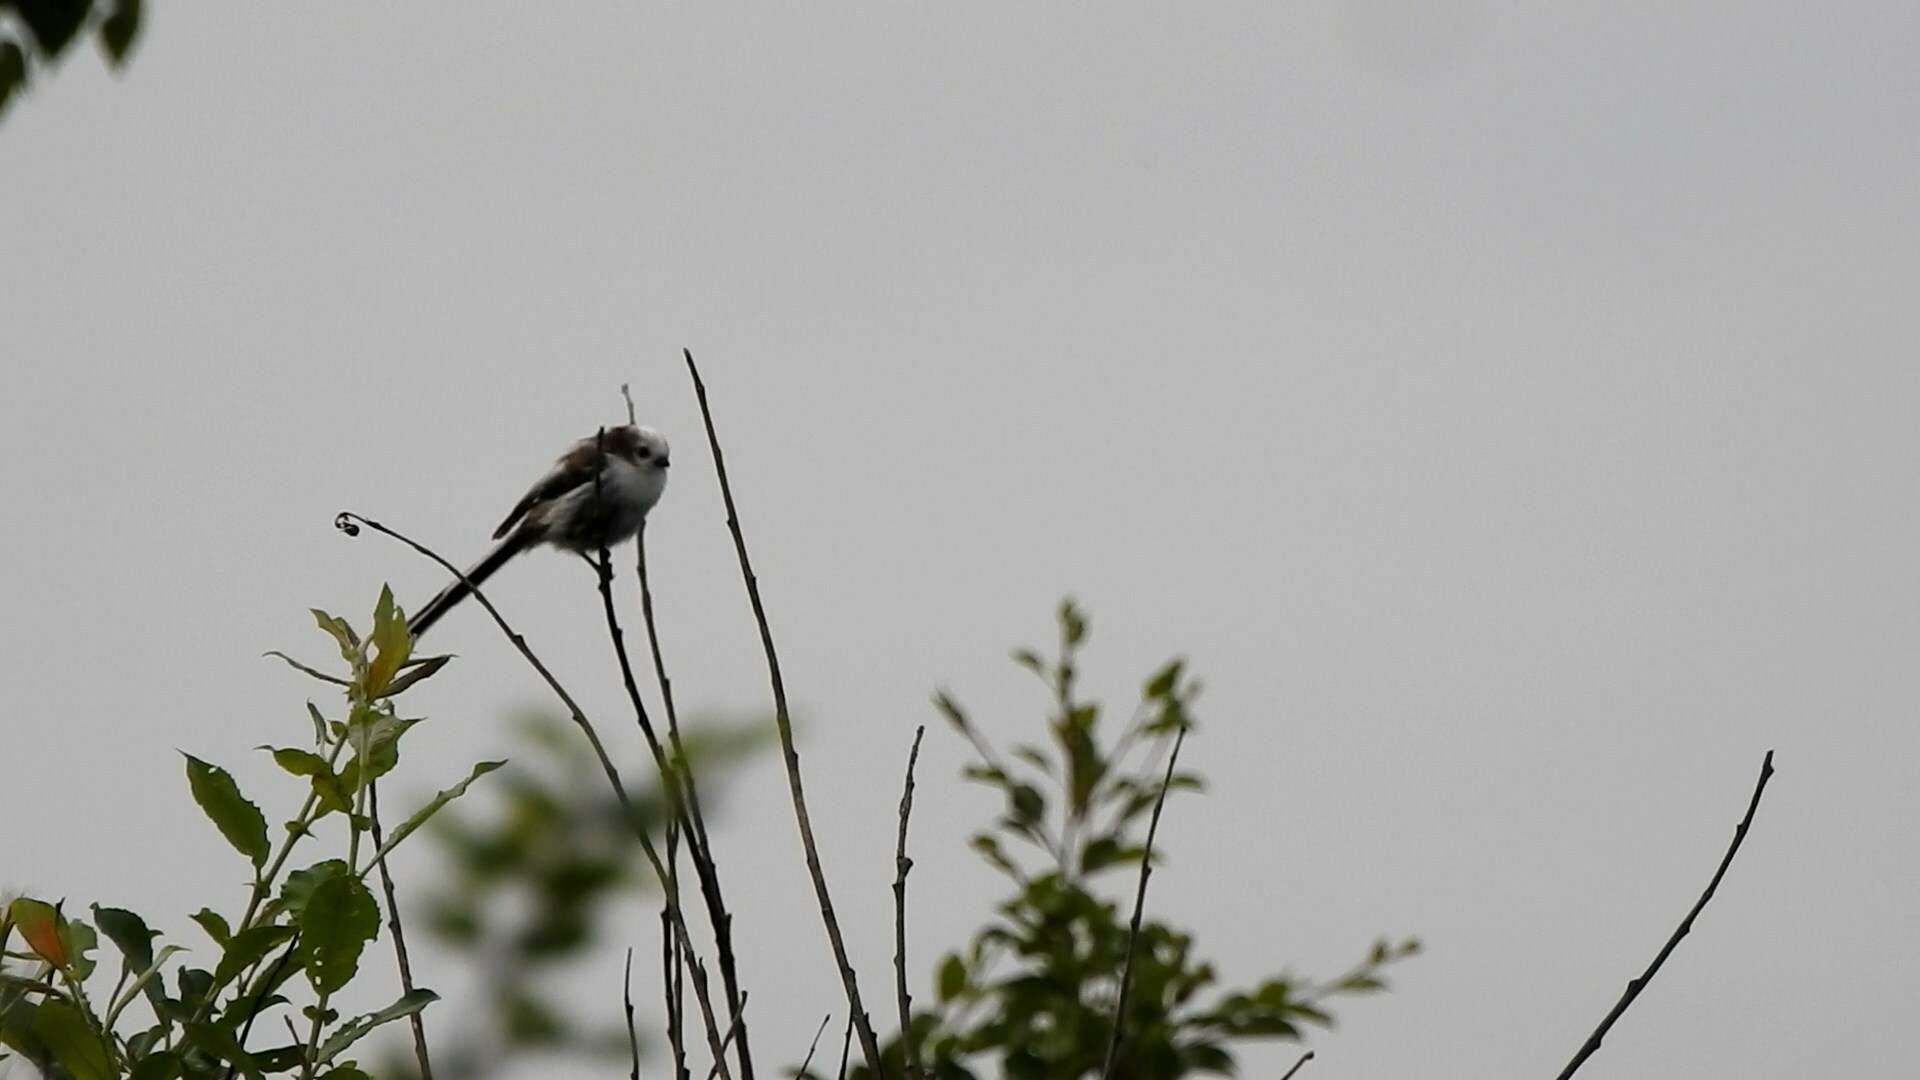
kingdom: Animalia
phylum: Chordata
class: Aves
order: Passeriformes
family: Aegithalidae
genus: Aegithalos
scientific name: Aegithalos caudatus
